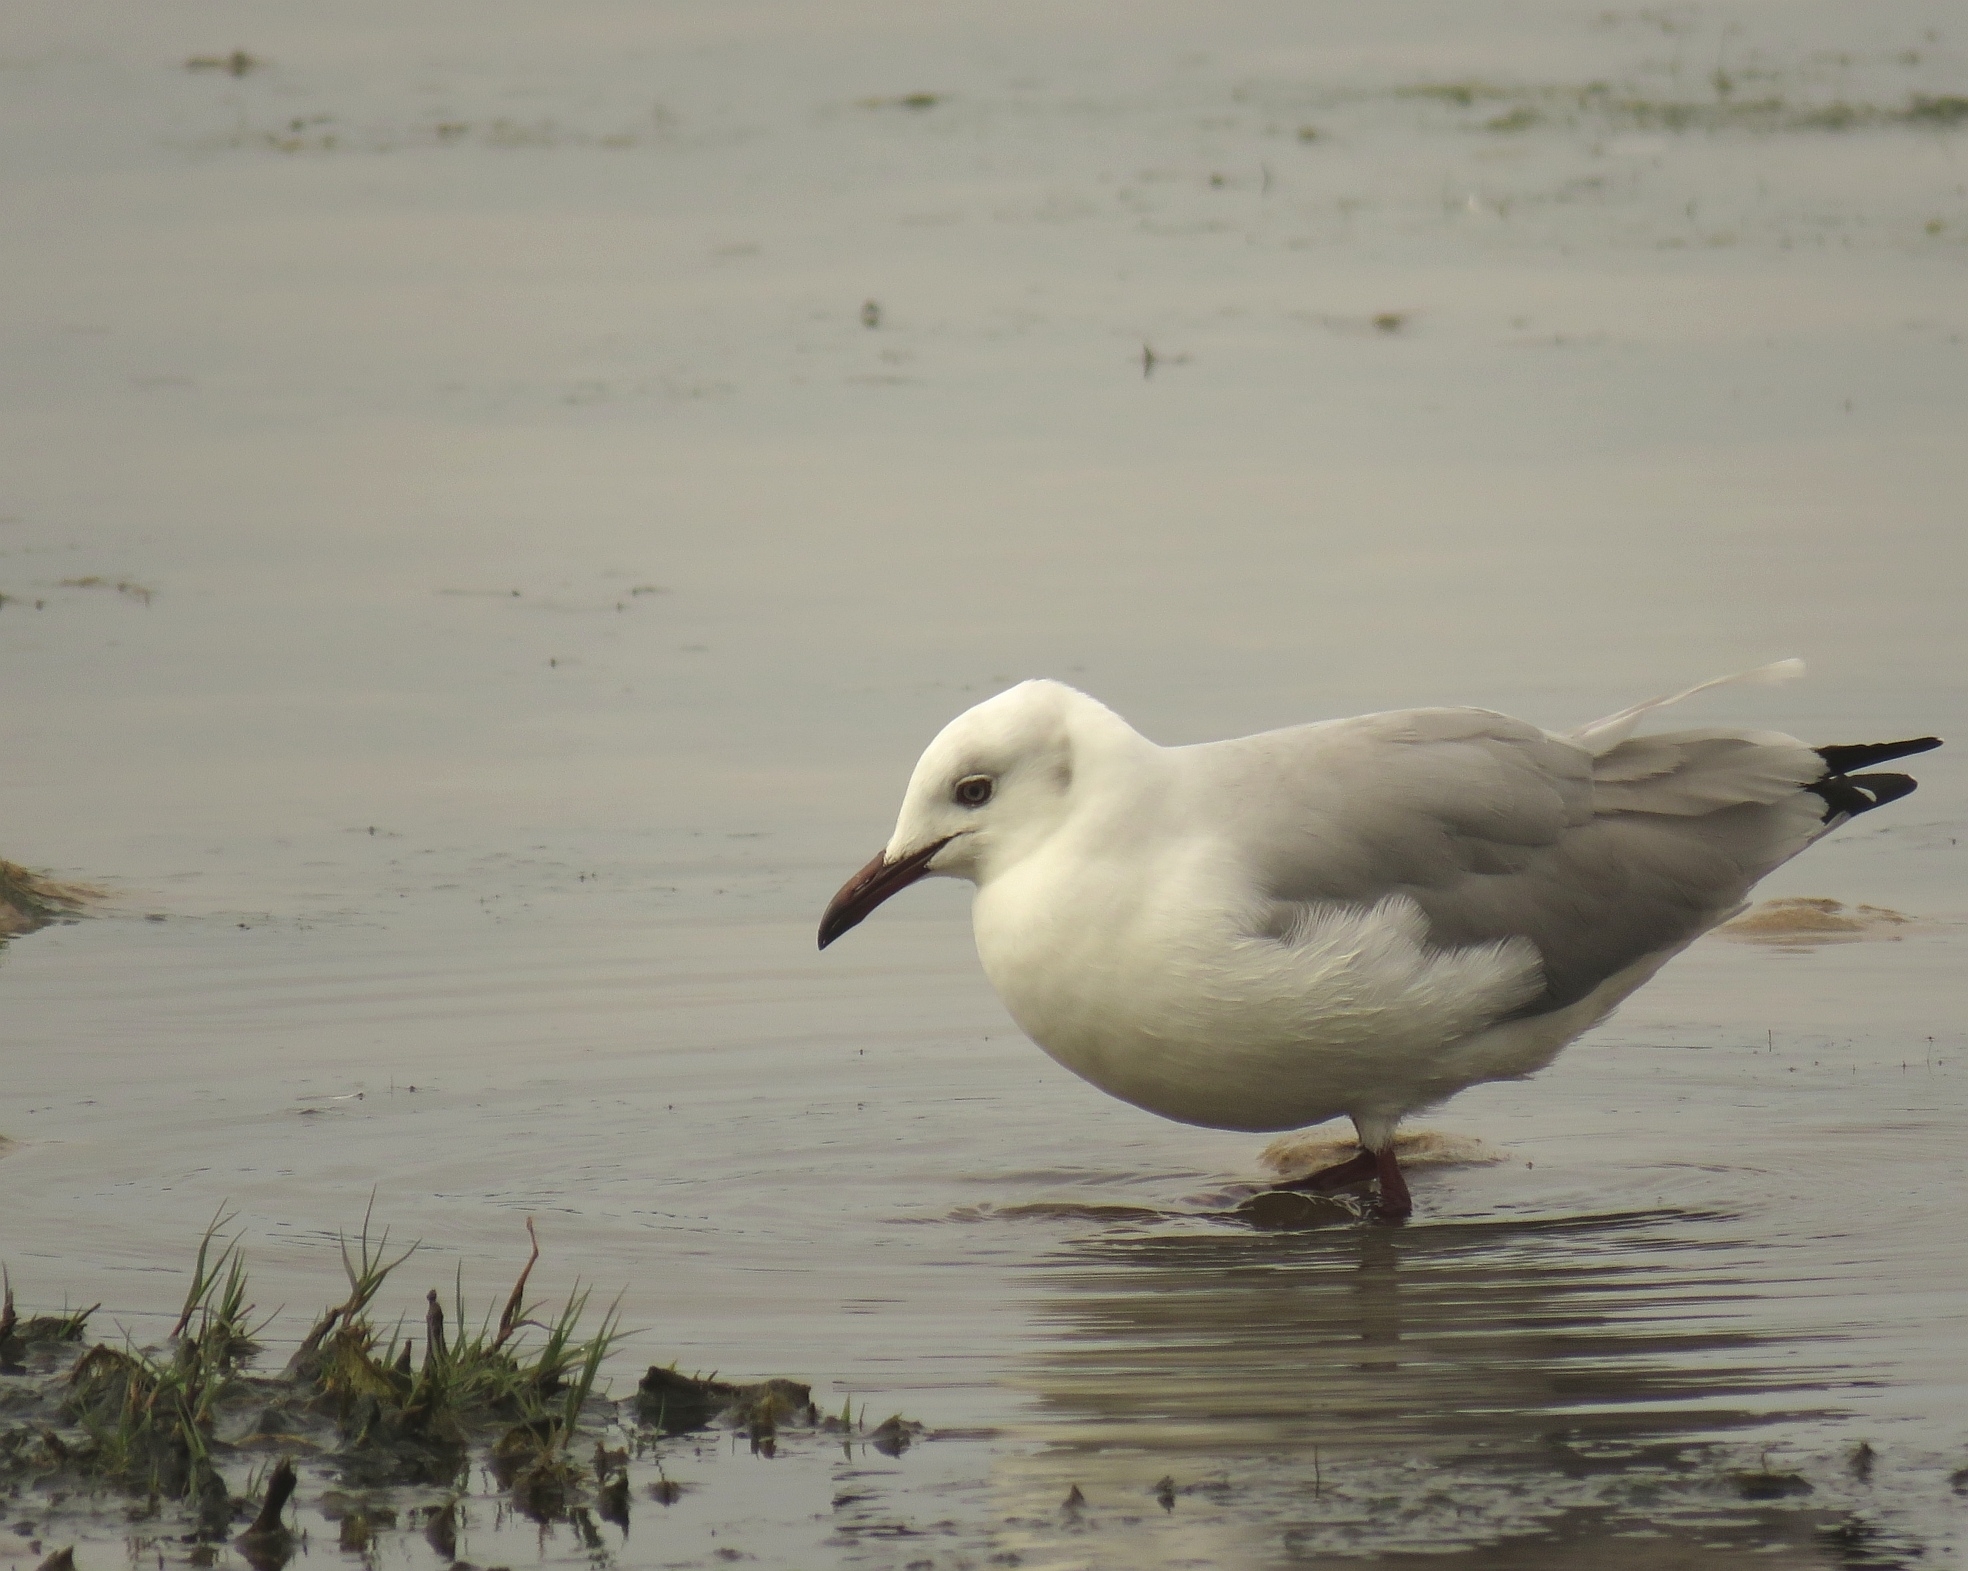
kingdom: Animalia
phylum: Chordata
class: Aves
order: Charadriiformes
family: Laridae
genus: Chroicocephalus
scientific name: Chroicocephalus cirrocephalus
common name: Grey-headed gull
